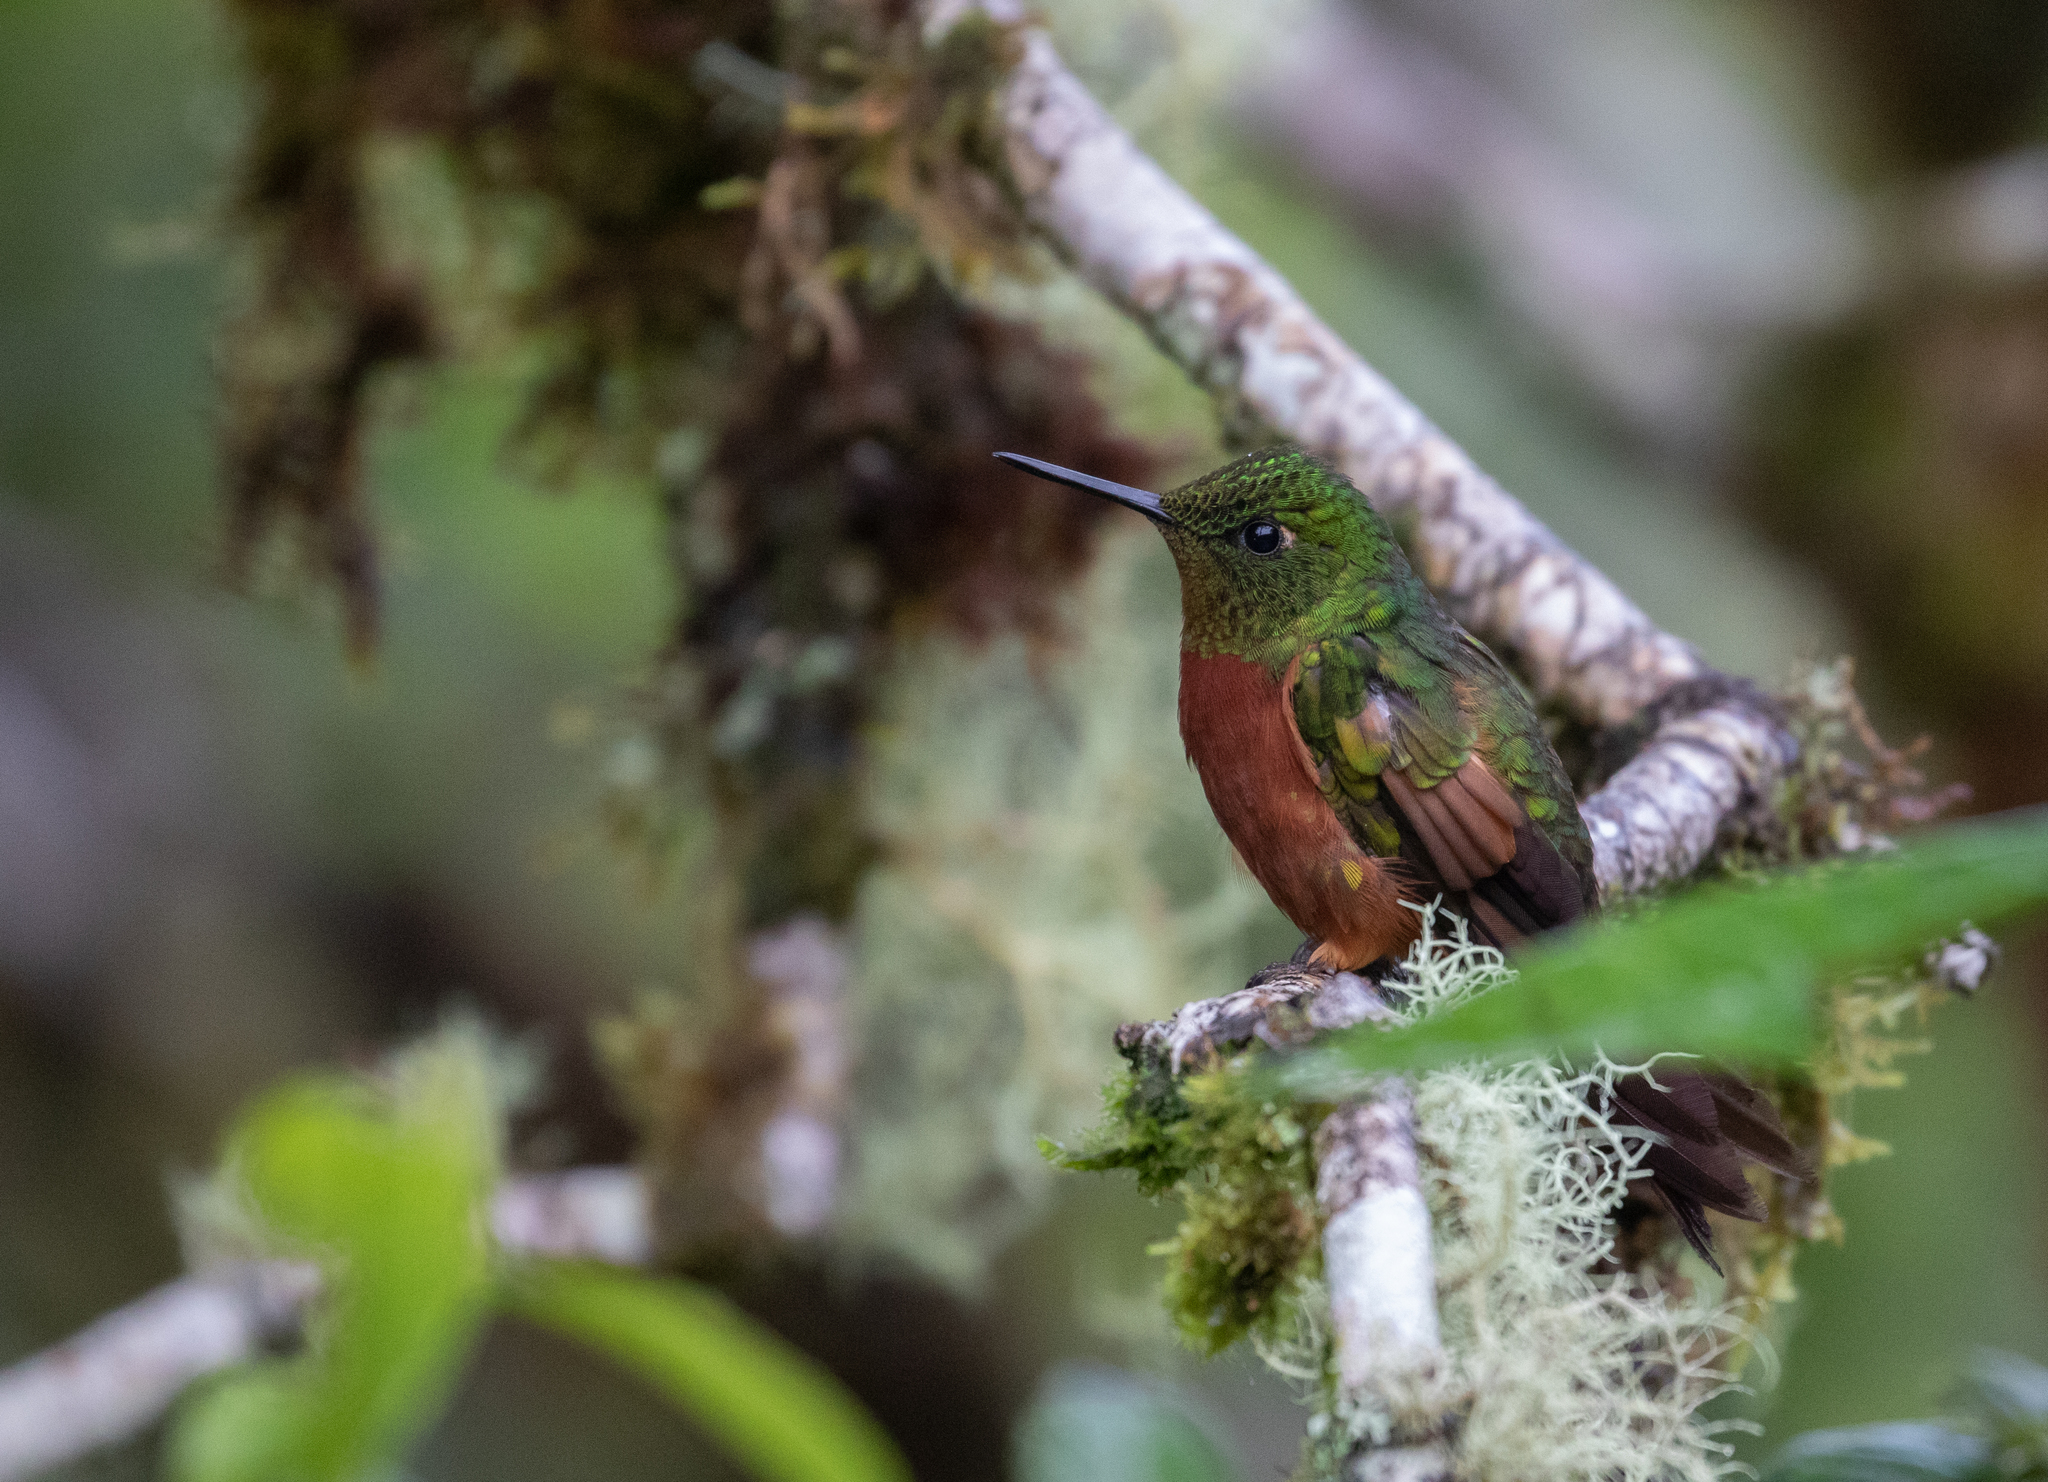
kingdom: Animalia
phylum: Chordata
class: Aves
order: Apodiformes
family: Trochilidae
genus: Boissonneaua
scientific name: Boissonneaua matthewsii
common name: Chestnut-breasted coronet
